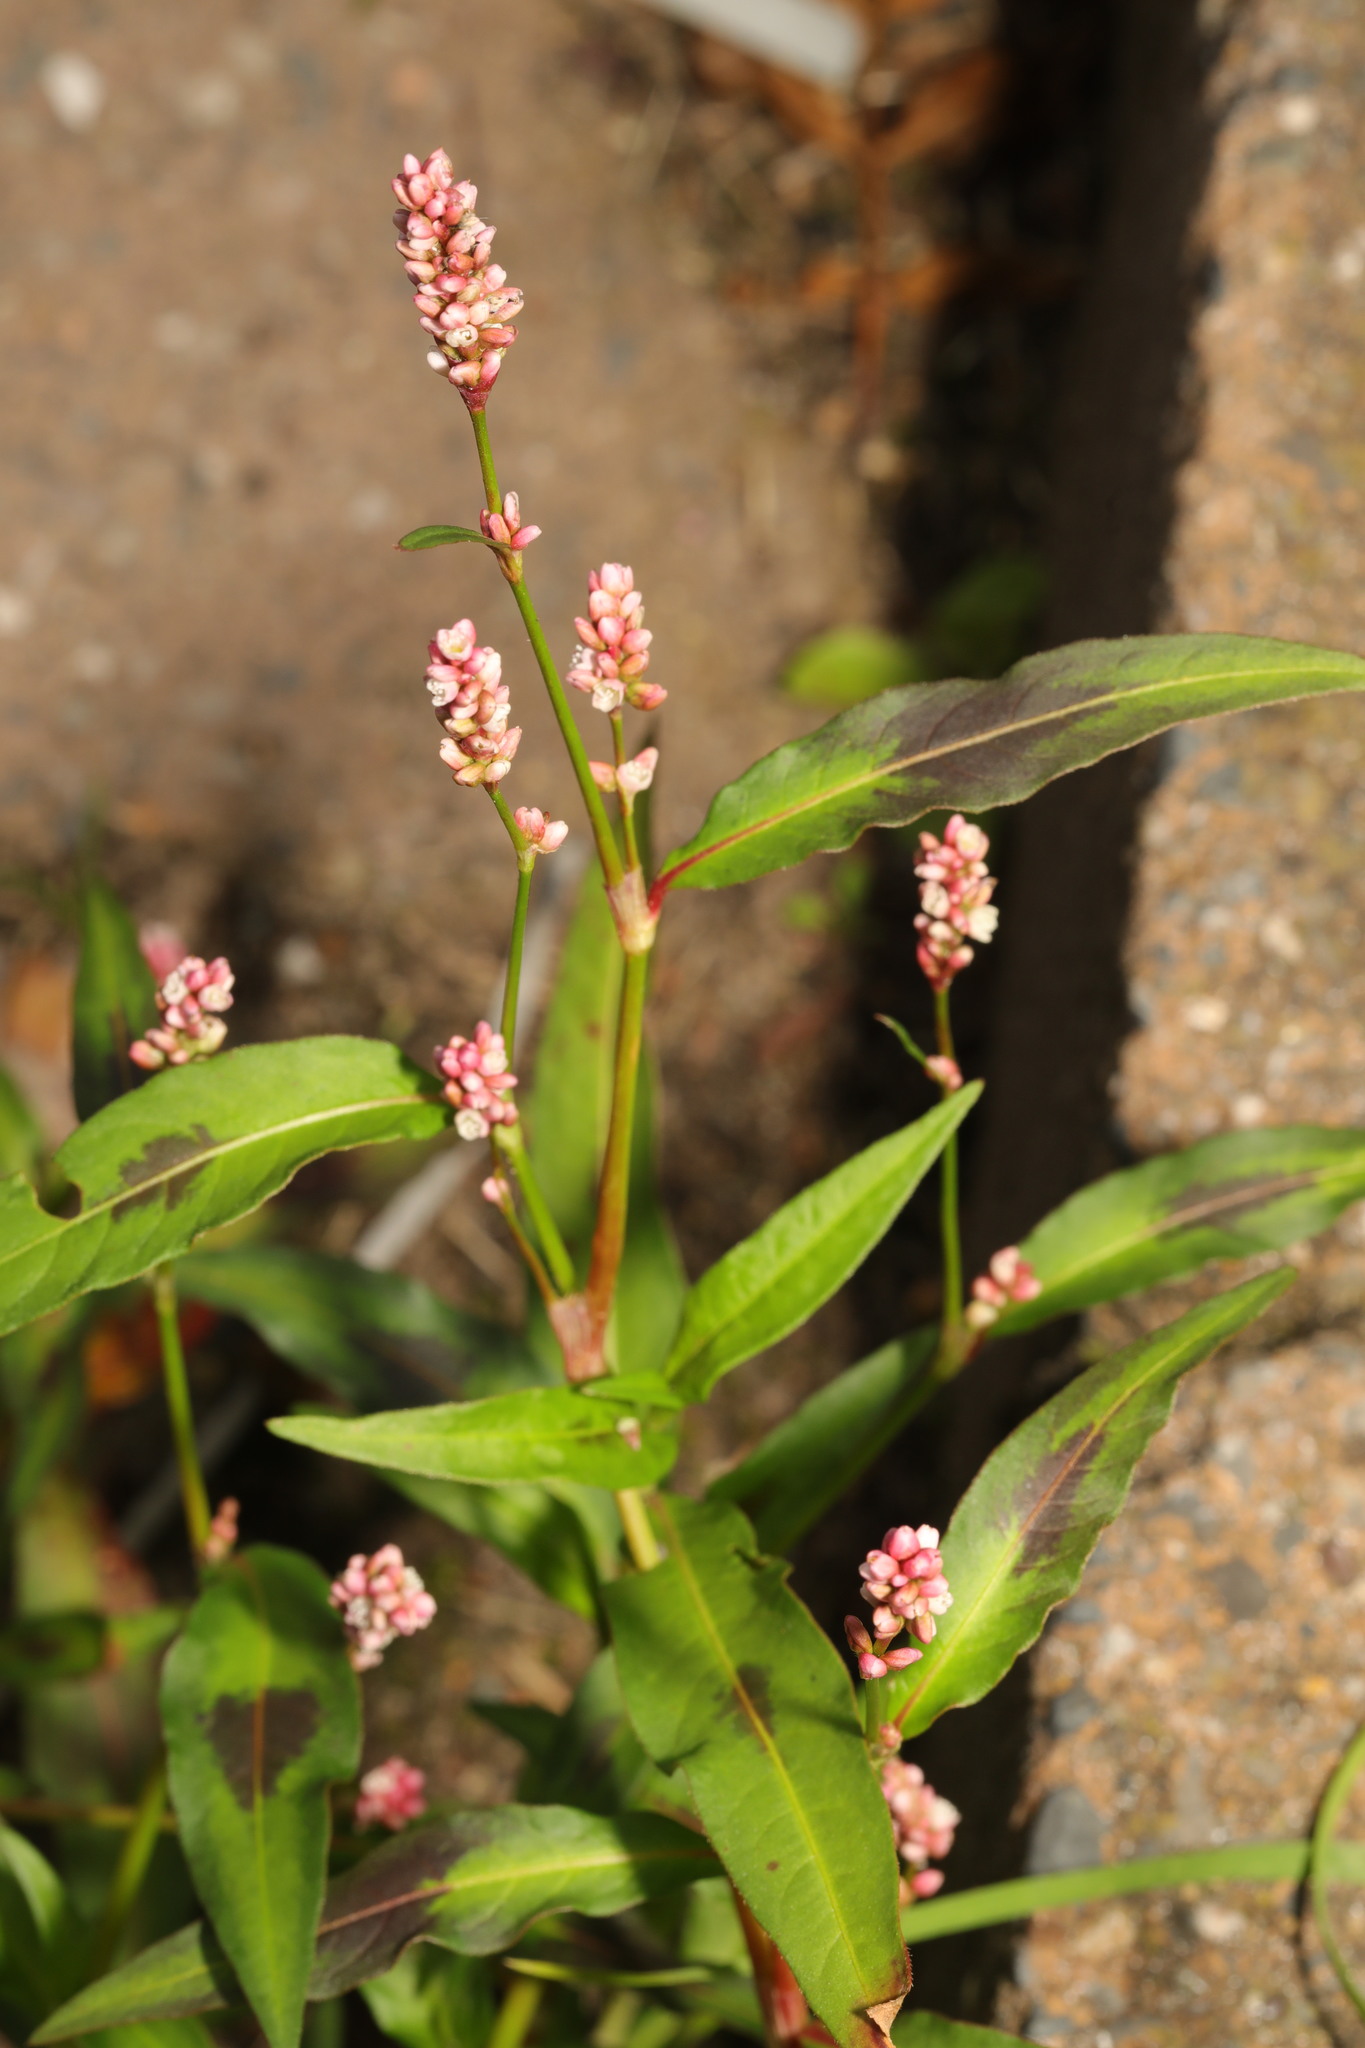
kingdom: Plantae
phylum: Tracheophyta
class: Magnoliopsida
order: Caryophyllales
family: Polygonaceae
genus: Persicaria
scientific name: Persicaria maculosa
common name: Redshank
